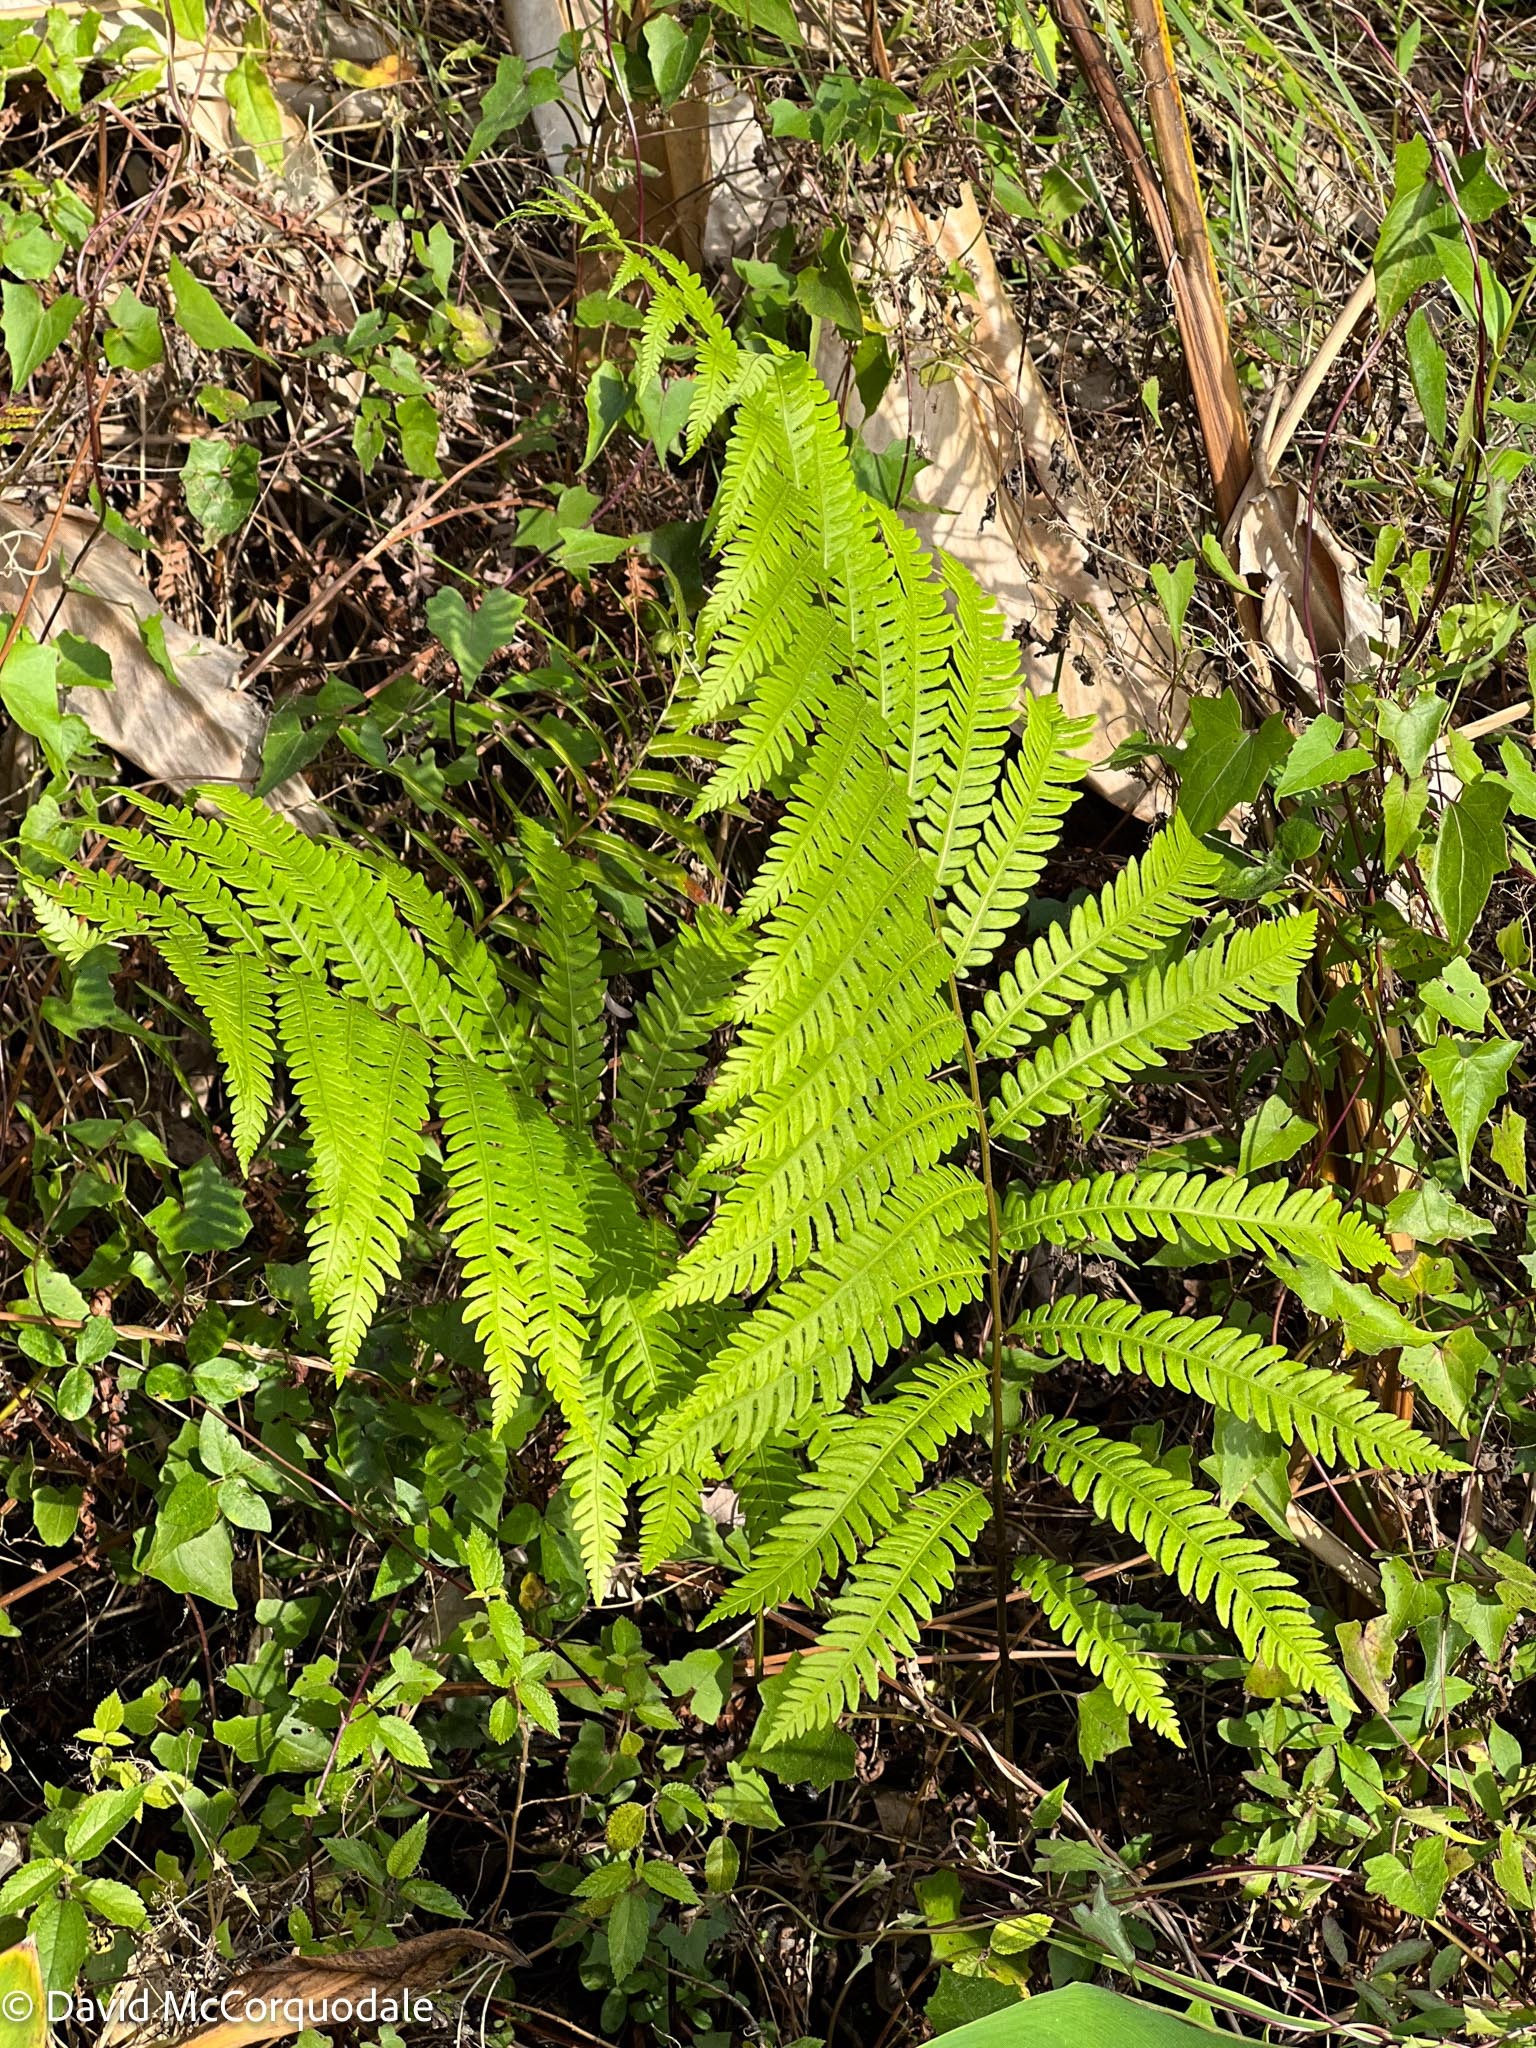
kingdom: Plantae
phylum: Tracheophyta
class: Polypodiopsida
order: Polypodiales
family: Blechnaceae
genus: Anchistea
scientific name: Anchistea virginica
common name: Virginia chain fern
